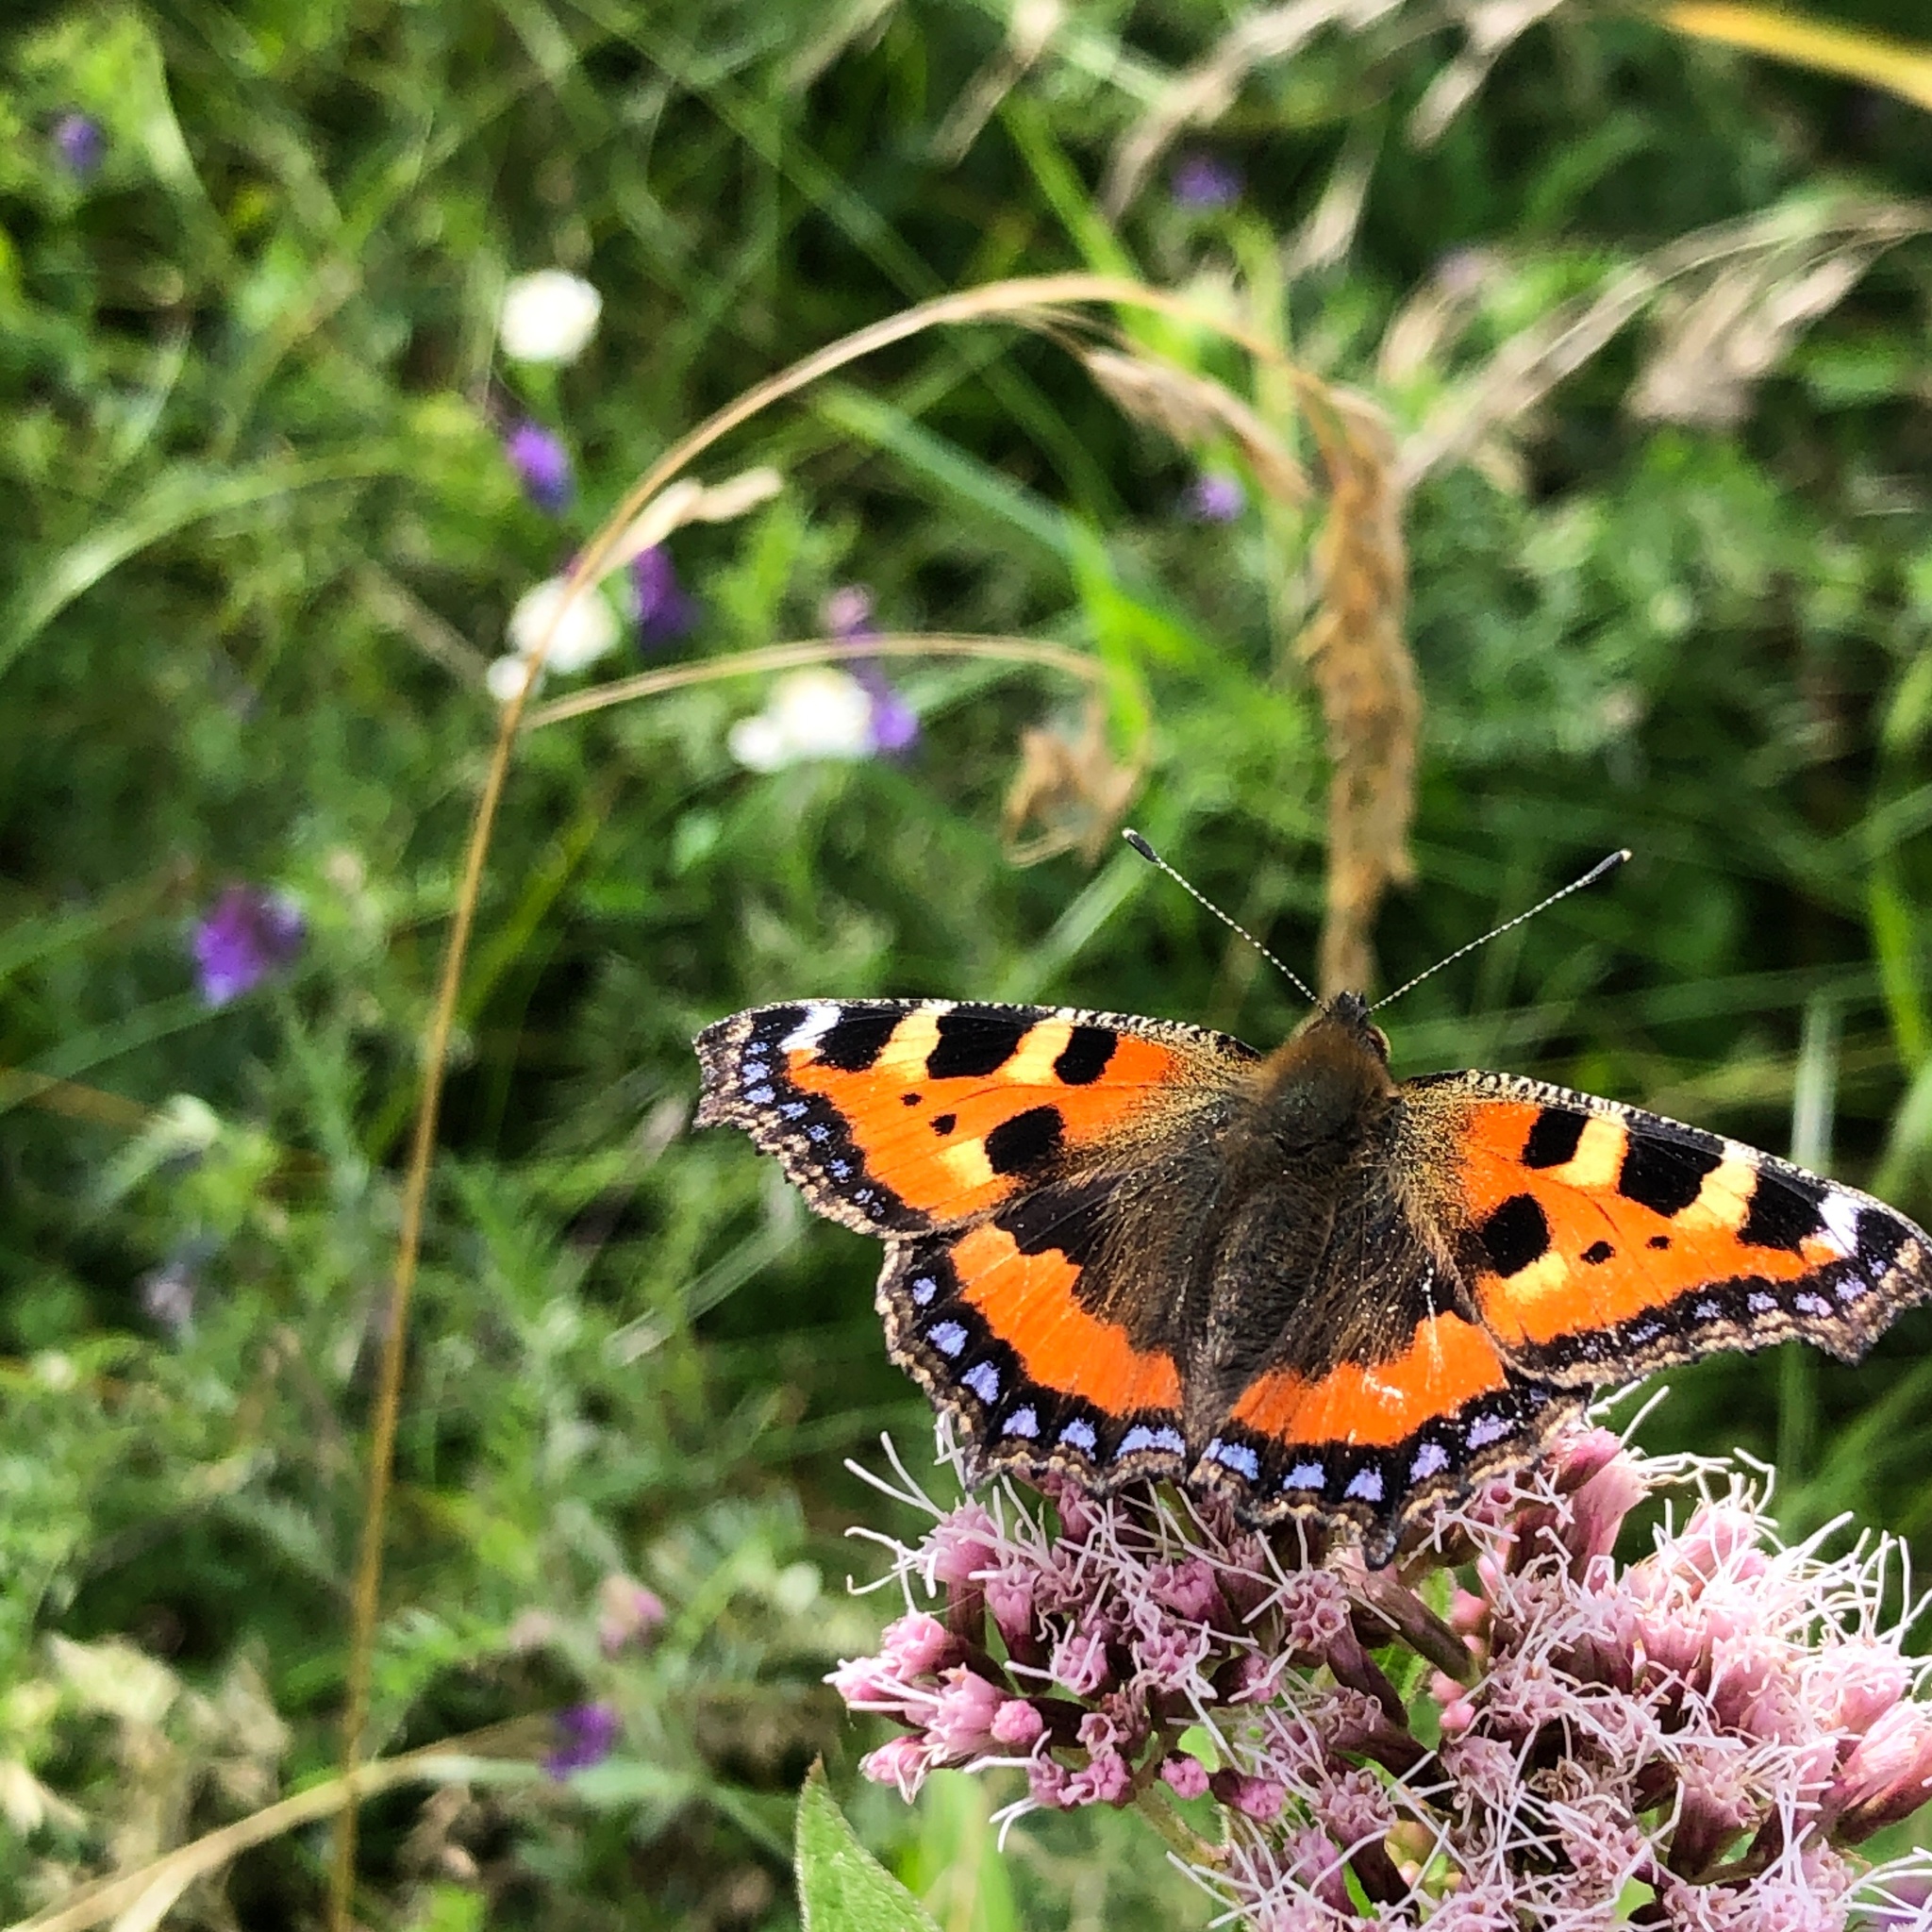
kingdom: Animalia
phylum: Arthropoda
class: Insecta
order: Lepidoptera
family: Nymphalidae
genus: Aglais
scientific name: Aglais urticae
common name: Small tortoiseshell
